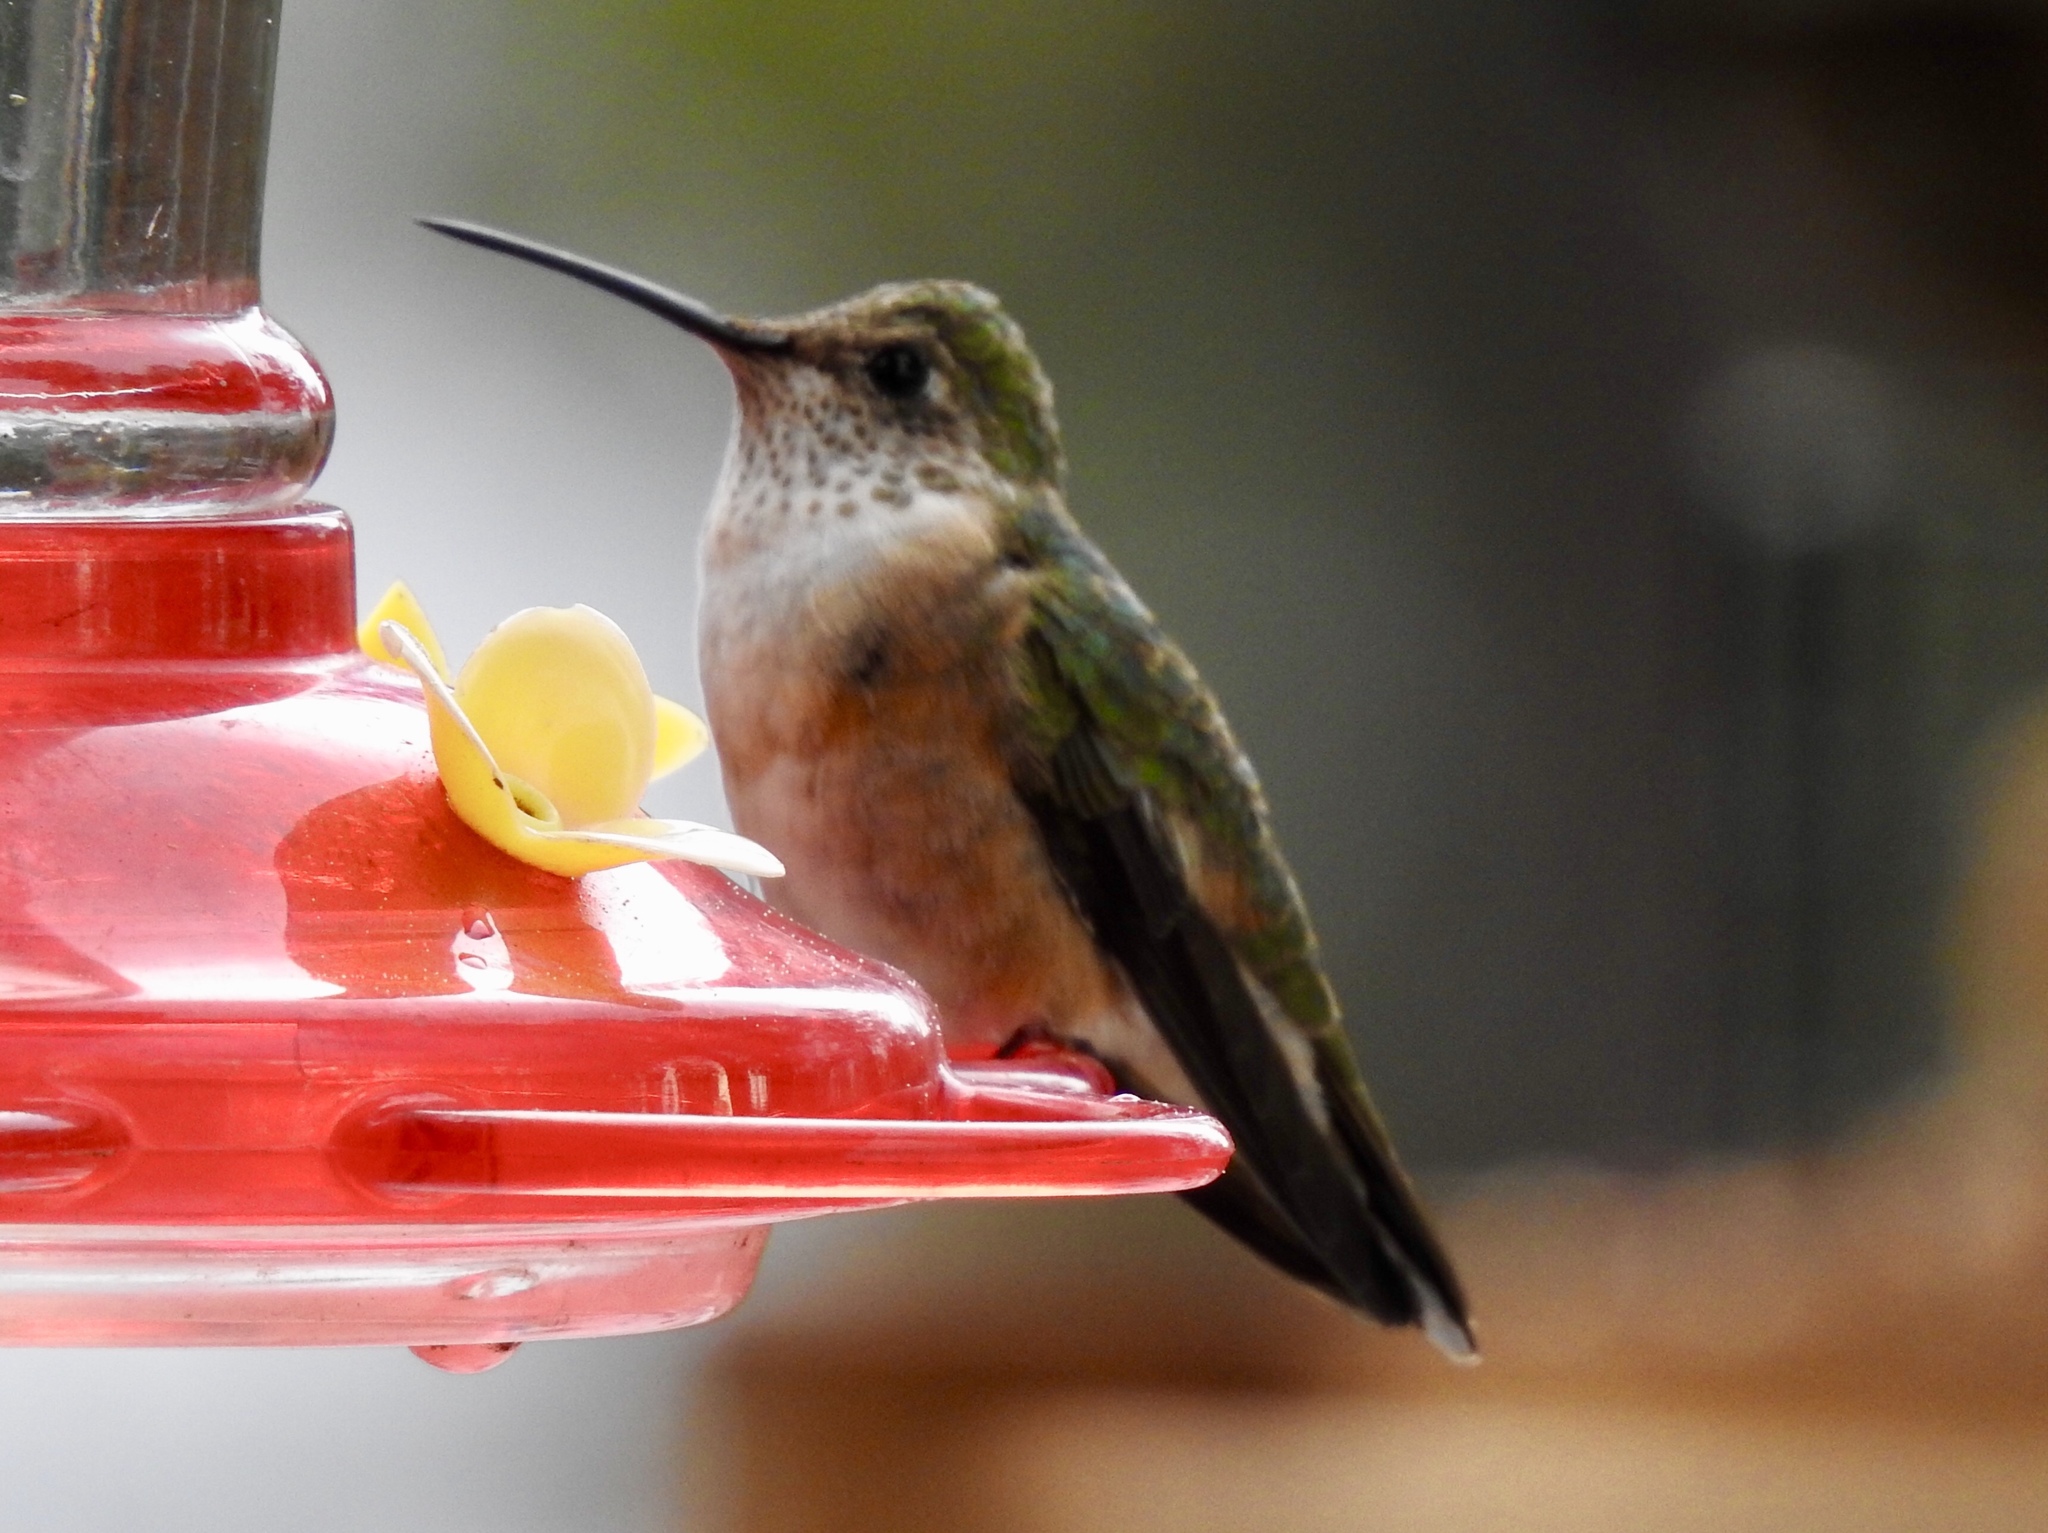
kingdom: Animalia
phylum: Chordata
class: Aves
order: Apodiformes
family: Trochilidae
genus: Selasphorus
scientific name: Selasphorus platycercus
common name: Broad-tailed hummingbird
